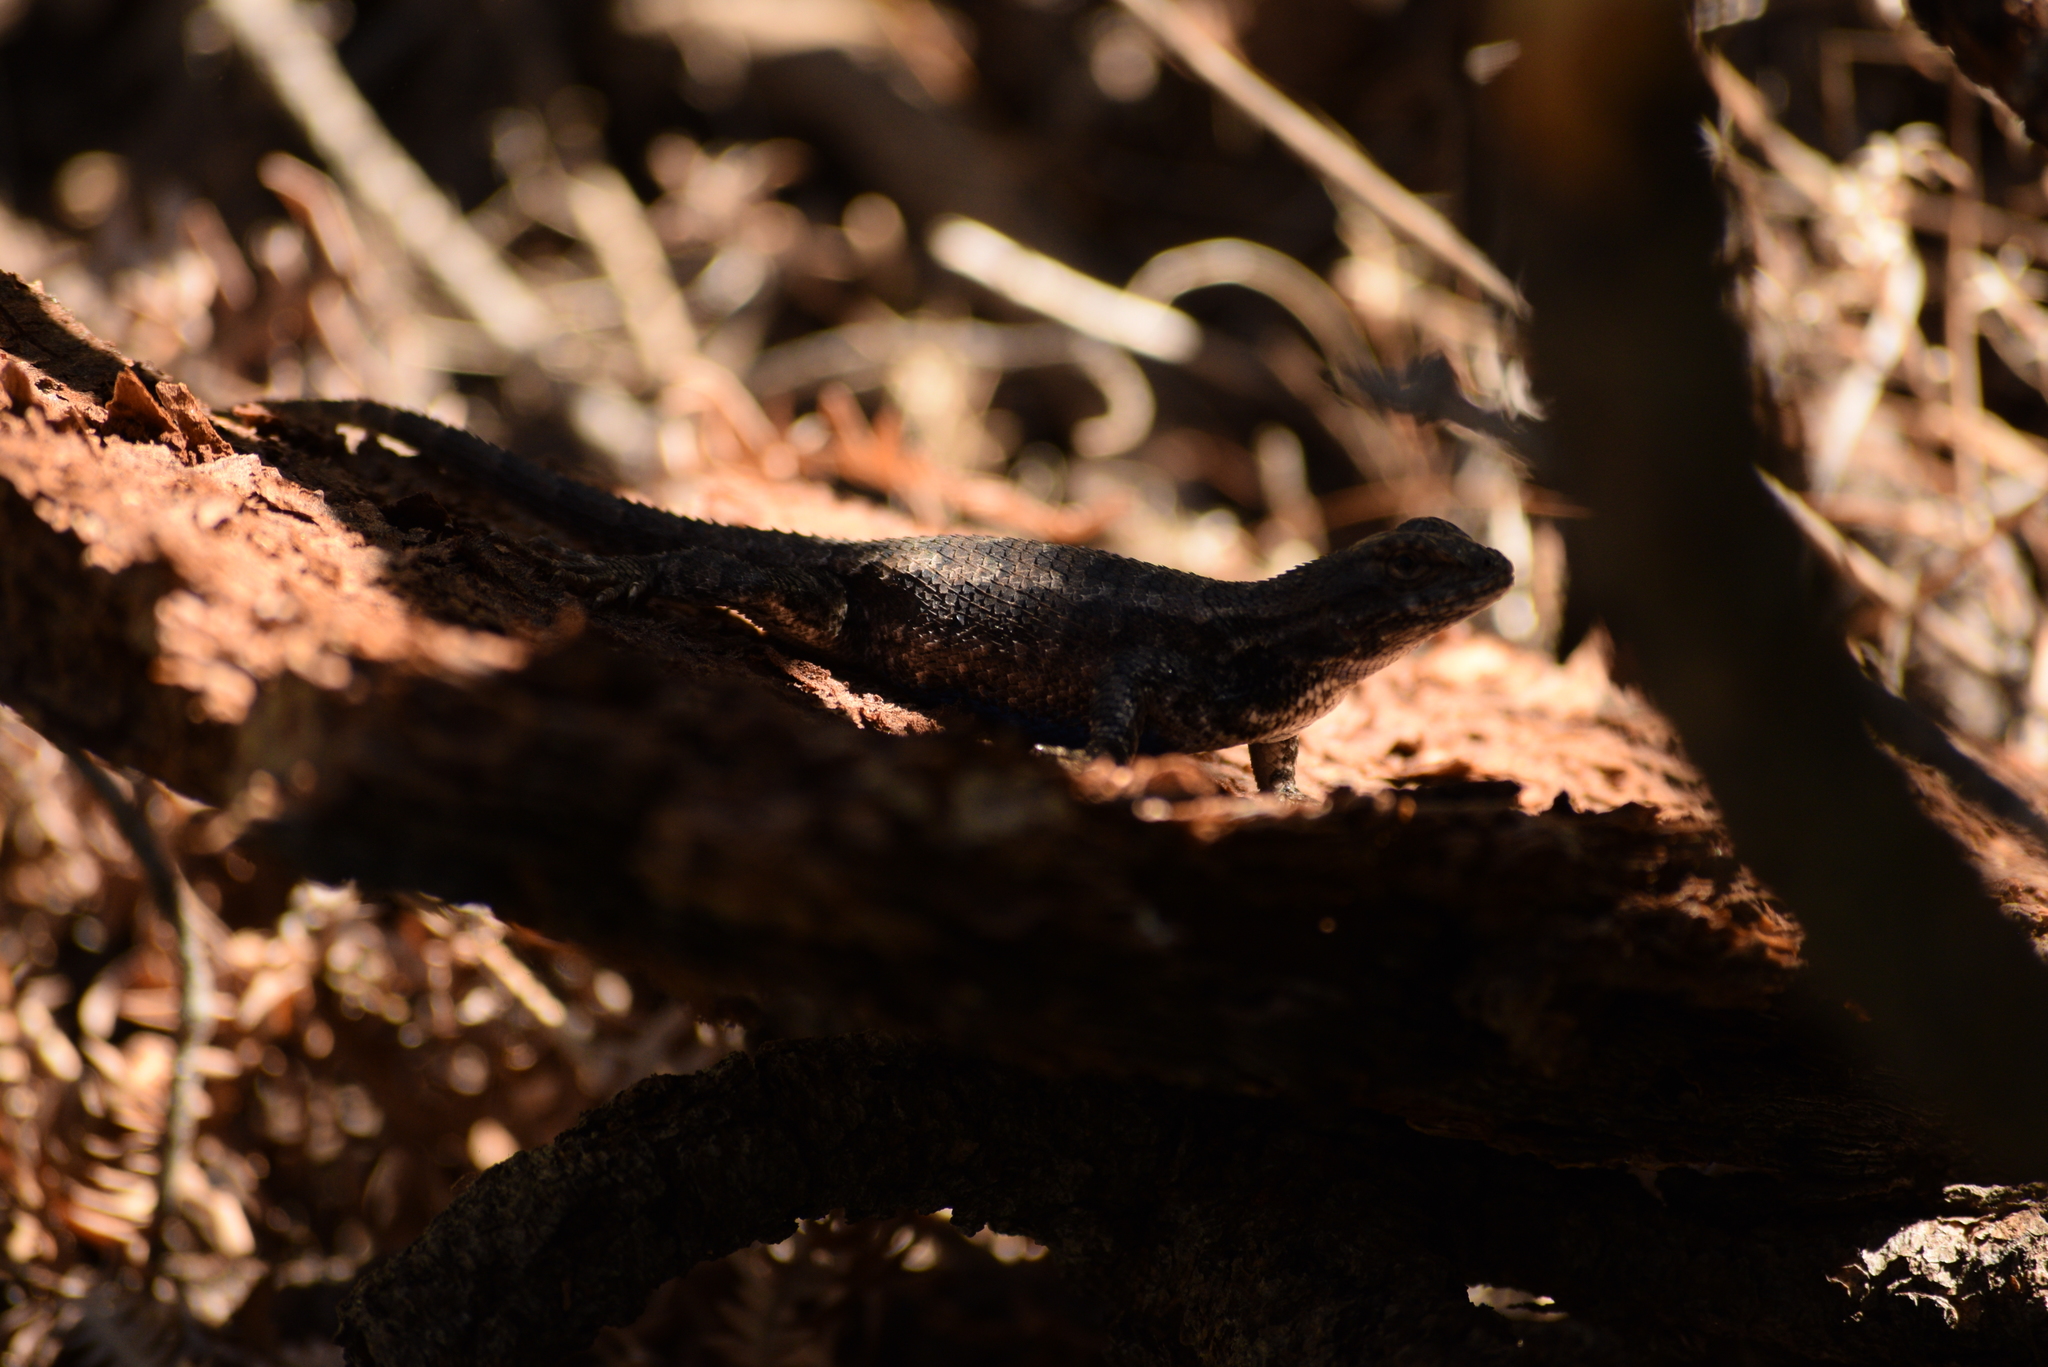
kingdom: Animalia
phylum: Chordata
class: Squamata
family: Phrynosomatidae
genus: Sceloporus
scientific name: Sceloporus occidentalis
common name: Western fence lizard
